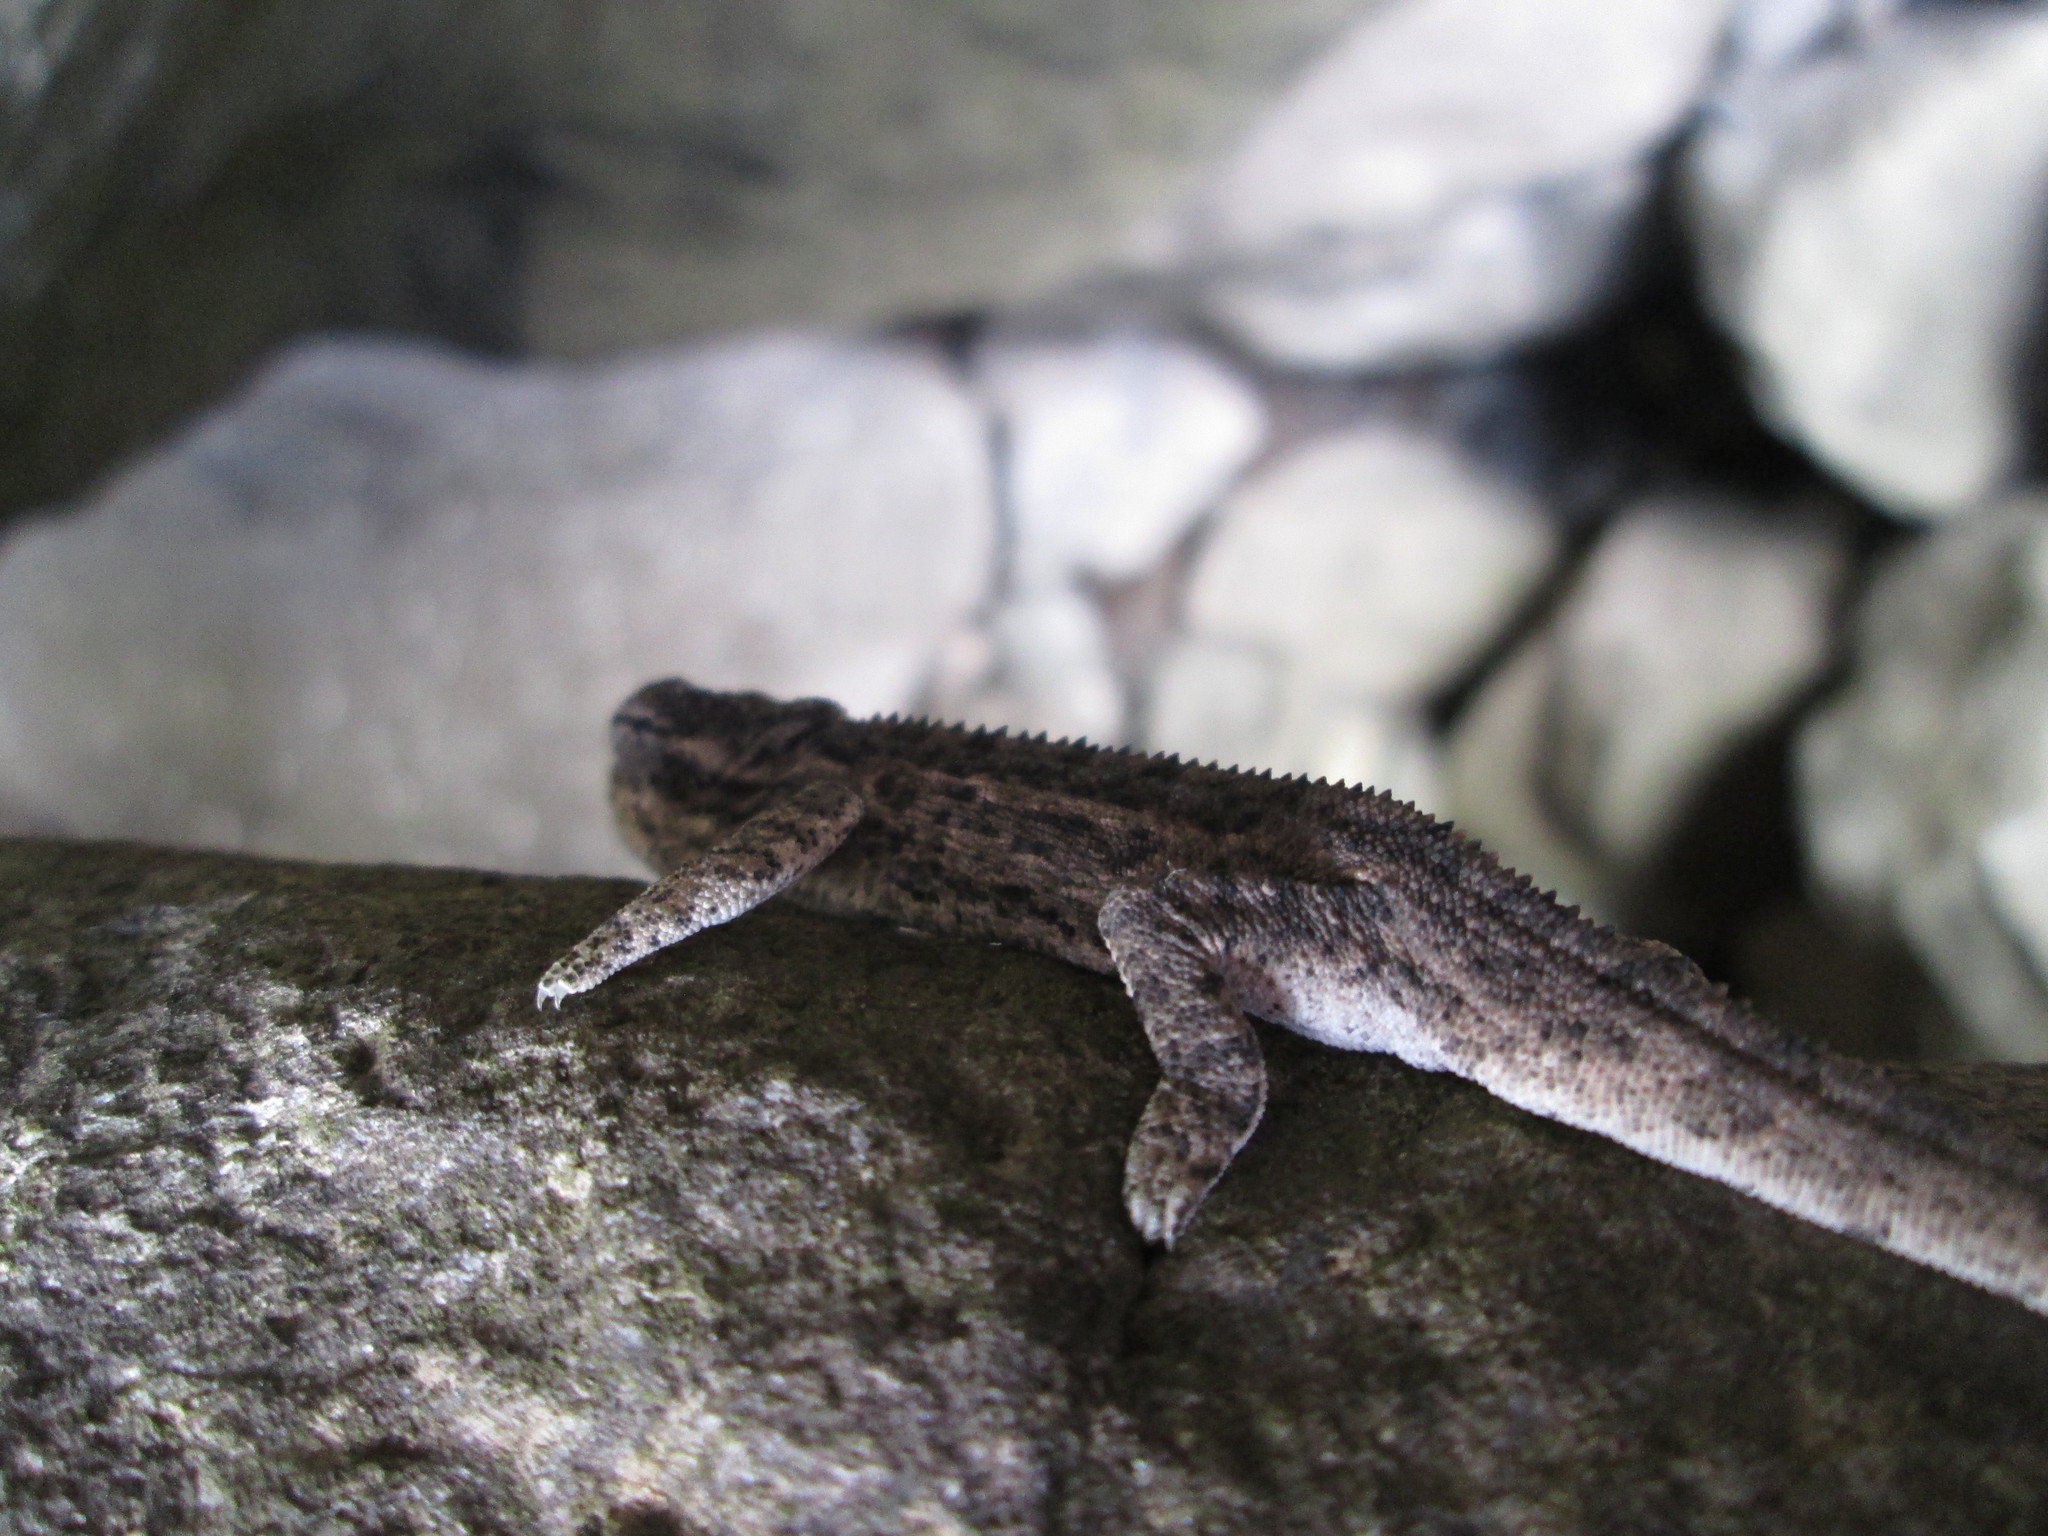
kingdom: Animalia
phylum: Chordata
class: Squamata
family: Chamaeleonidae
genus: Bradypodion
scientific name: Bradypodion dracomontanum
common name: Drakensberg dwarf chameleon
